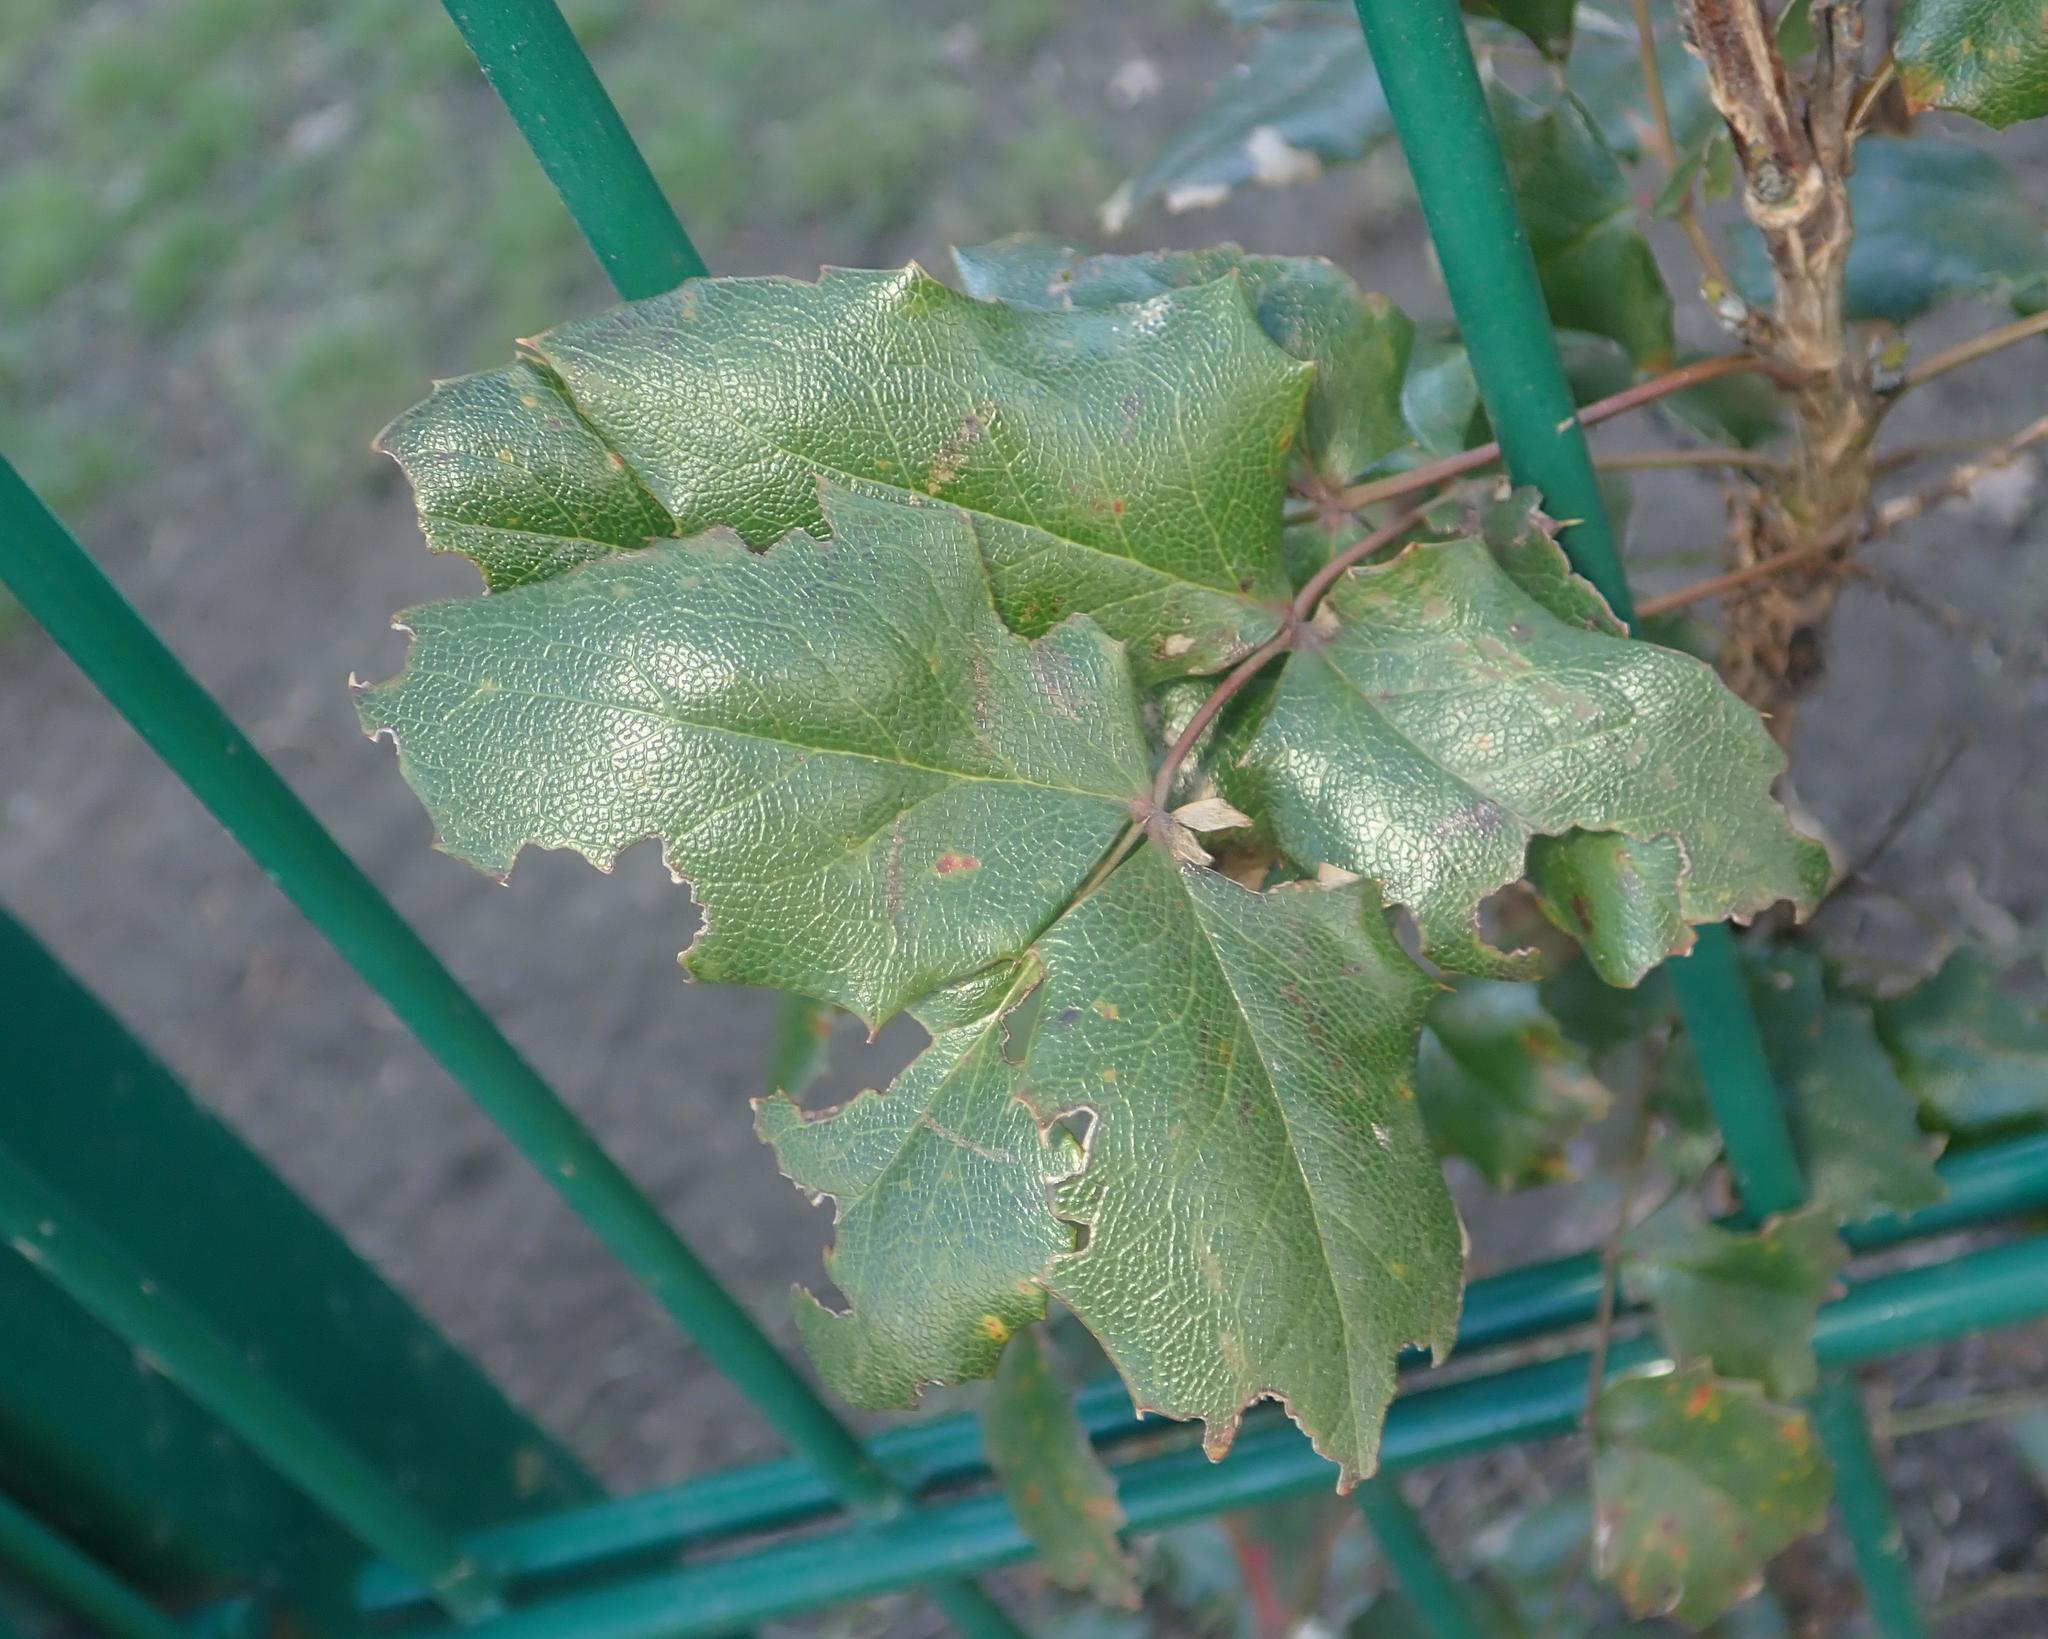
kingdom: Plantae
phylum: Tracheophyta
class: Magnoliopsida
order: Ranunculales
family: Berberidaceae
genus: Mahonia
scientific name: Mahonia aquifolium
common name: Oregon-grape
